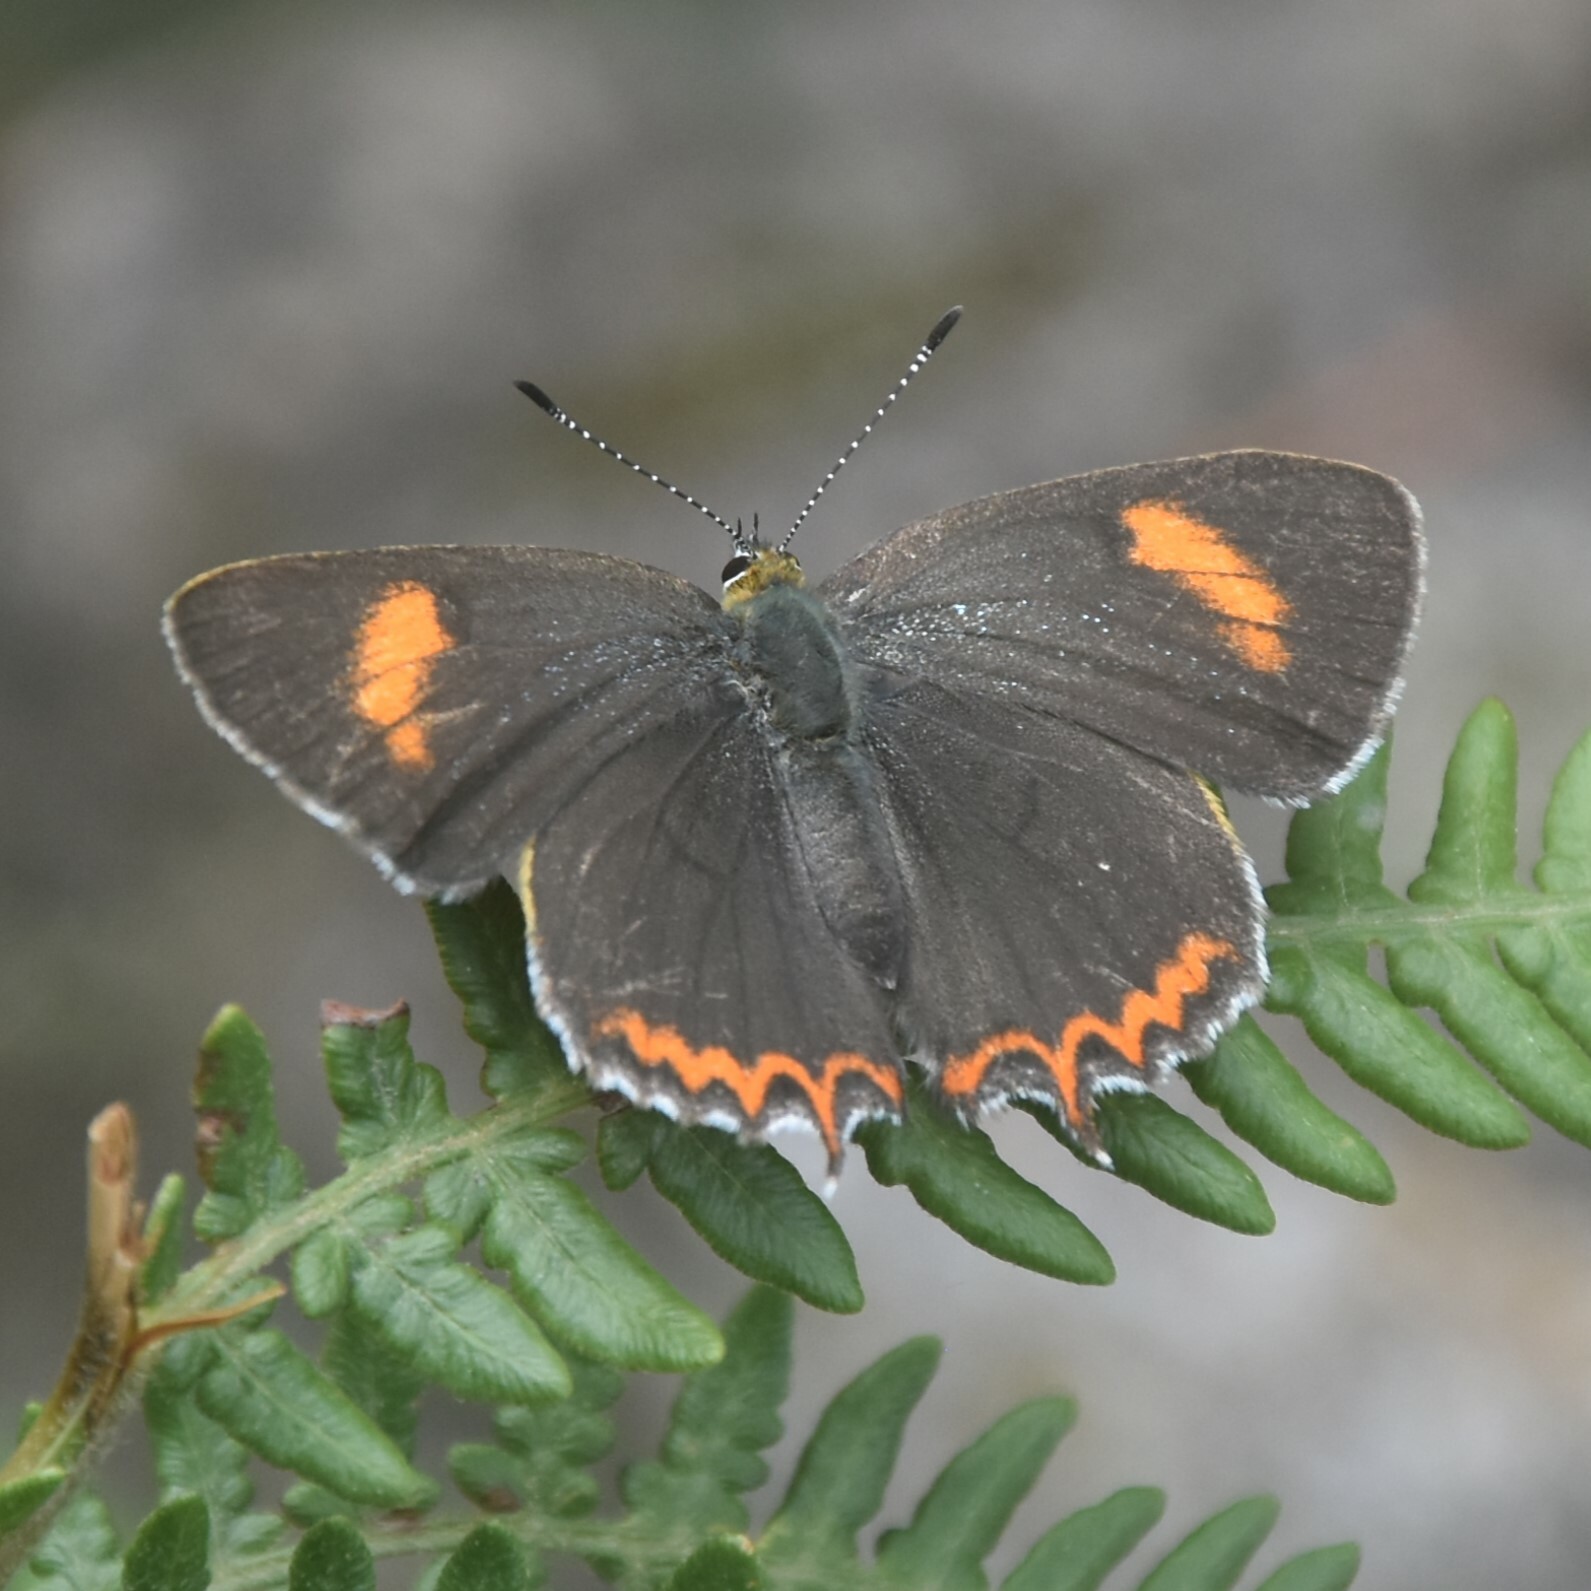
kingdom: Animalia
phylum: Arthropoda
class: Insecta
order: Lepidoptera
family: Lycaenidae
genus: Heliophorus
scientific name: Heliophorus
